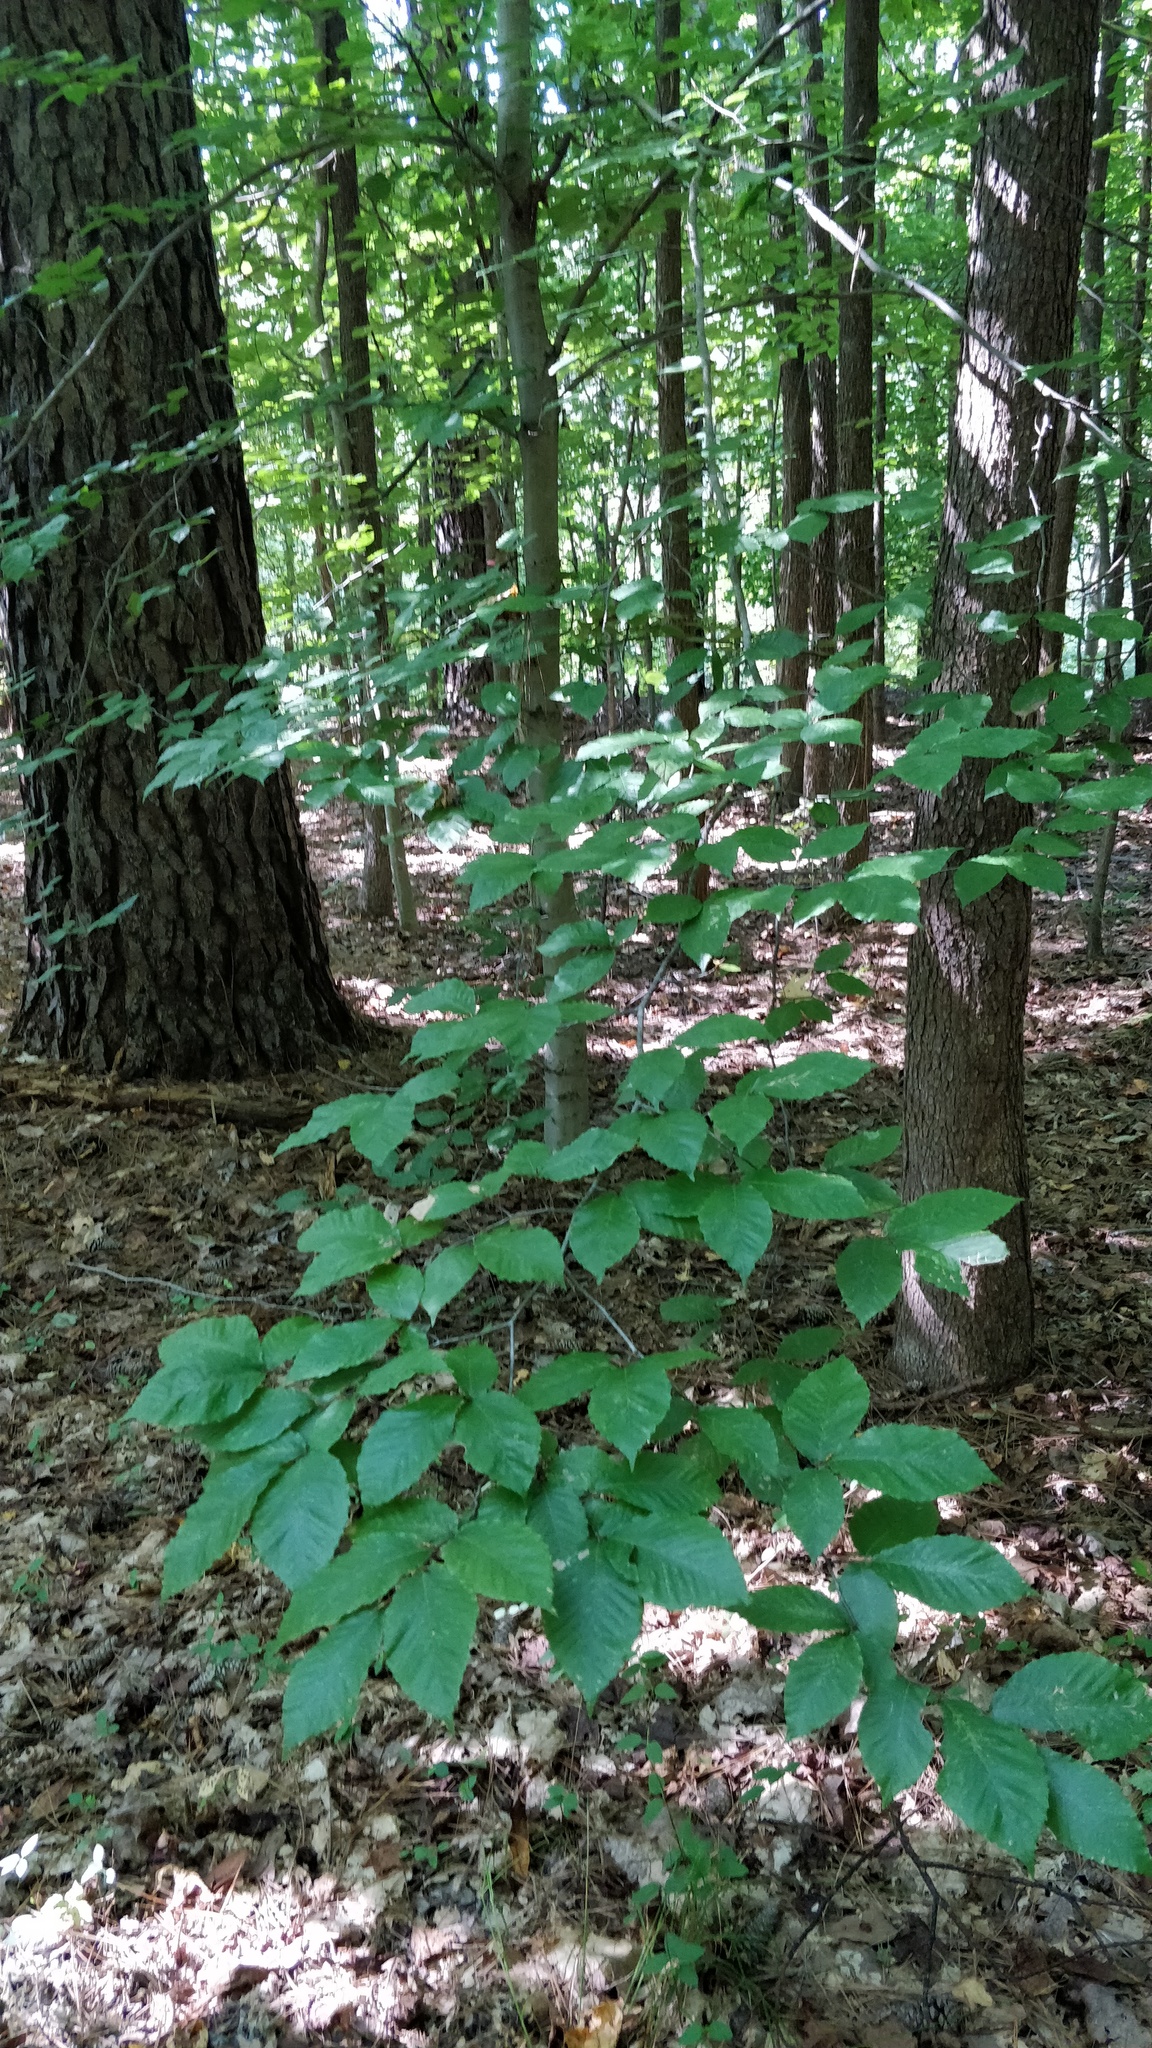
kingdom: Plantae
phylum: Tracheophyta
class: Magnoliopsida
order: Fagales
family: Fagaceae
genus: Fagus
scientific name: Fagus grandifolia
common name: American beech
